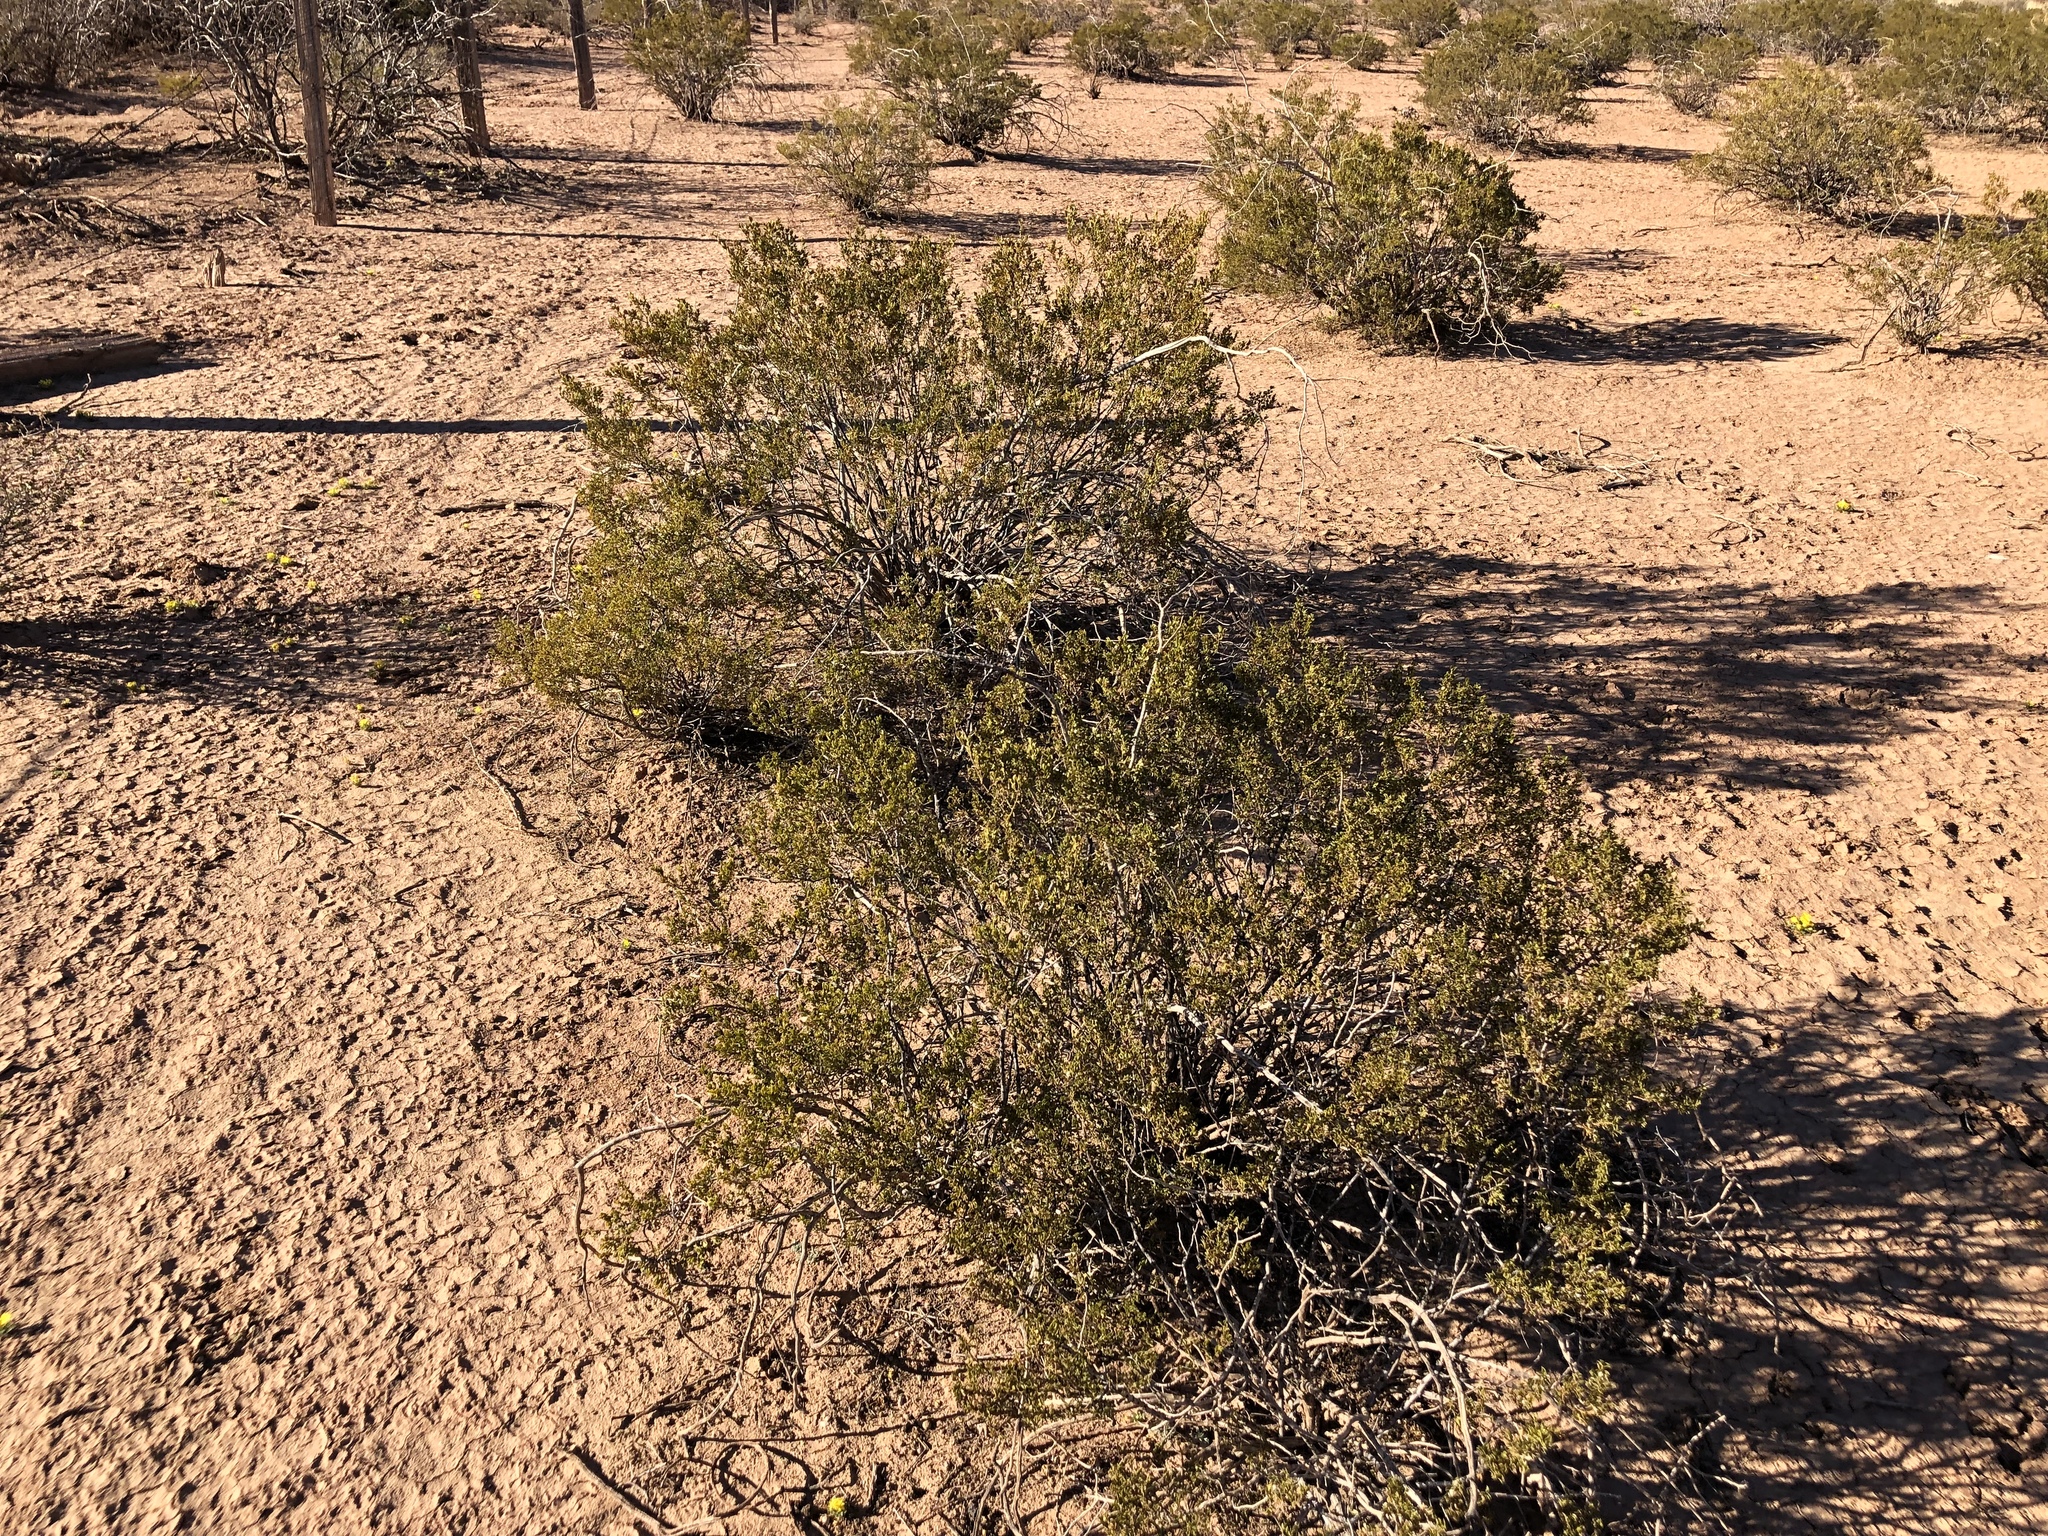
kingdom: Plantae
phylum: Tracheophyta
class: Magnoliopsida
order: Zygophyllales
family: Zygophyllaceae
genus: Larrea
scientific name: Larrea tridentata
